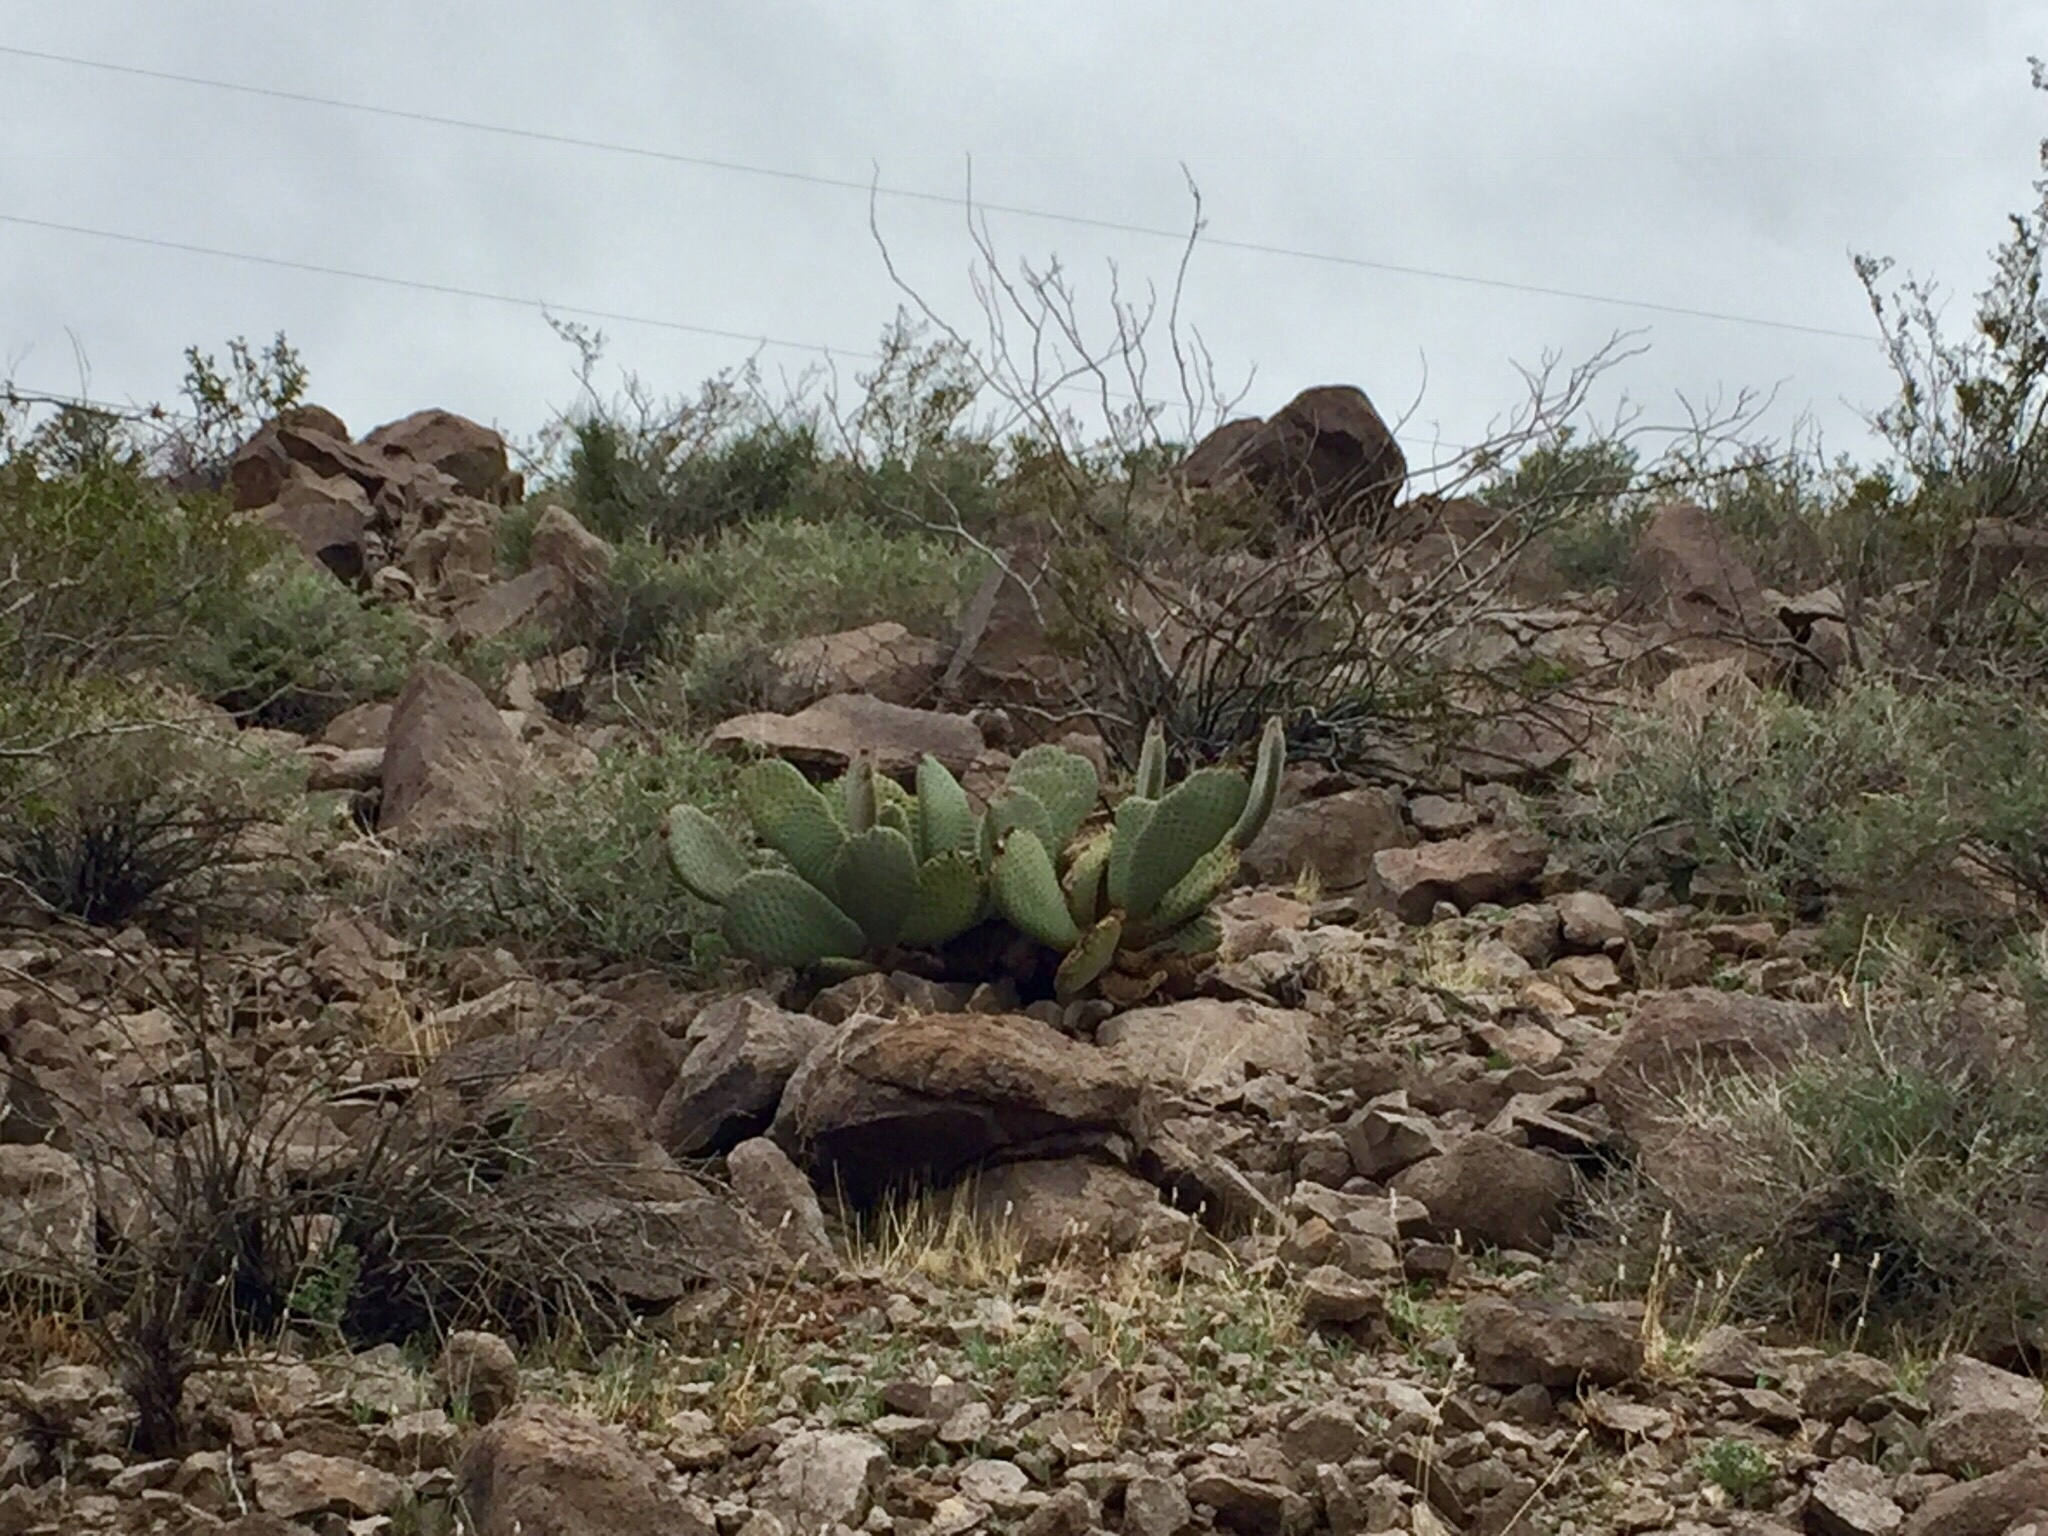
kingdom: Plantae
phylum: Tracheophyta
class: Magnoliopsida
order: Caryophyllales
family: Cactaceae
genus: Opuntia
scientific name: Opuntia basilaris
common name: Beavertail prickly-pear
